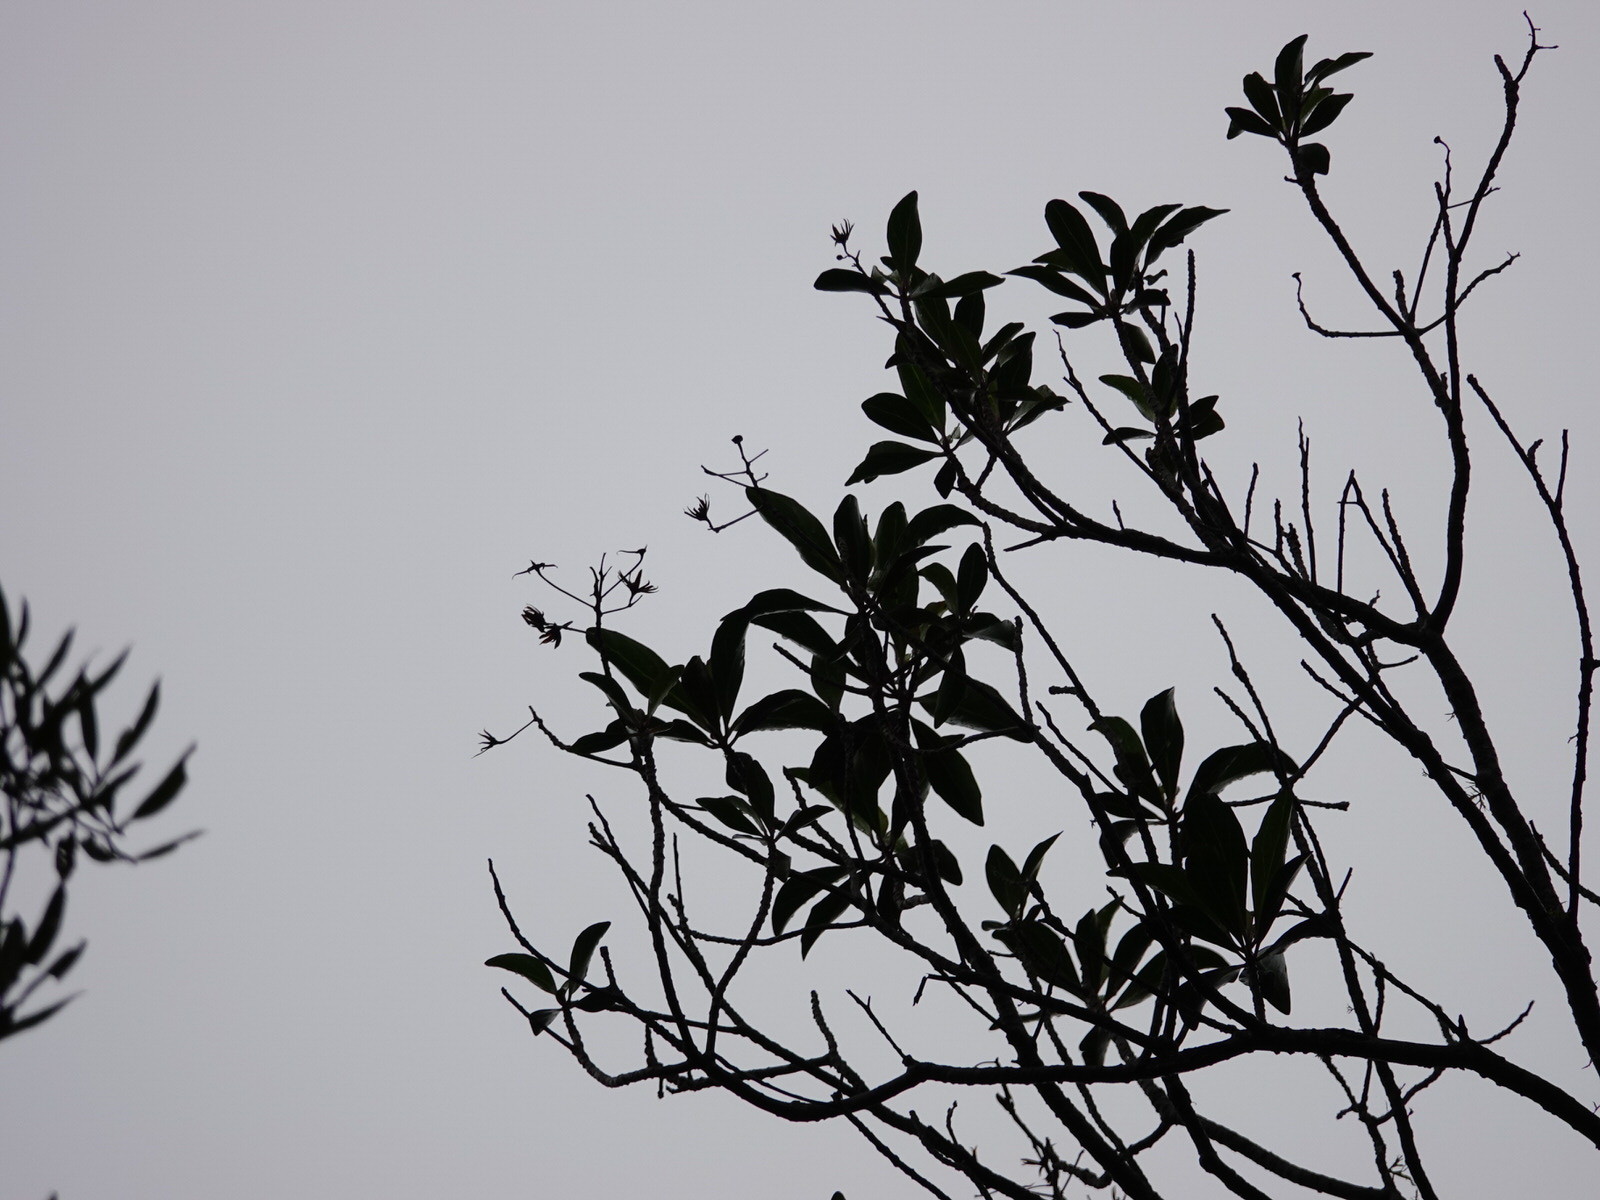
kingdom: Plantae
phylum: Tracheophyta
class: Magnoliopsida
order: Asterales
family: Asteraceae
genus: Brachyglottis
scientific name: Brachyglottis kirkii
